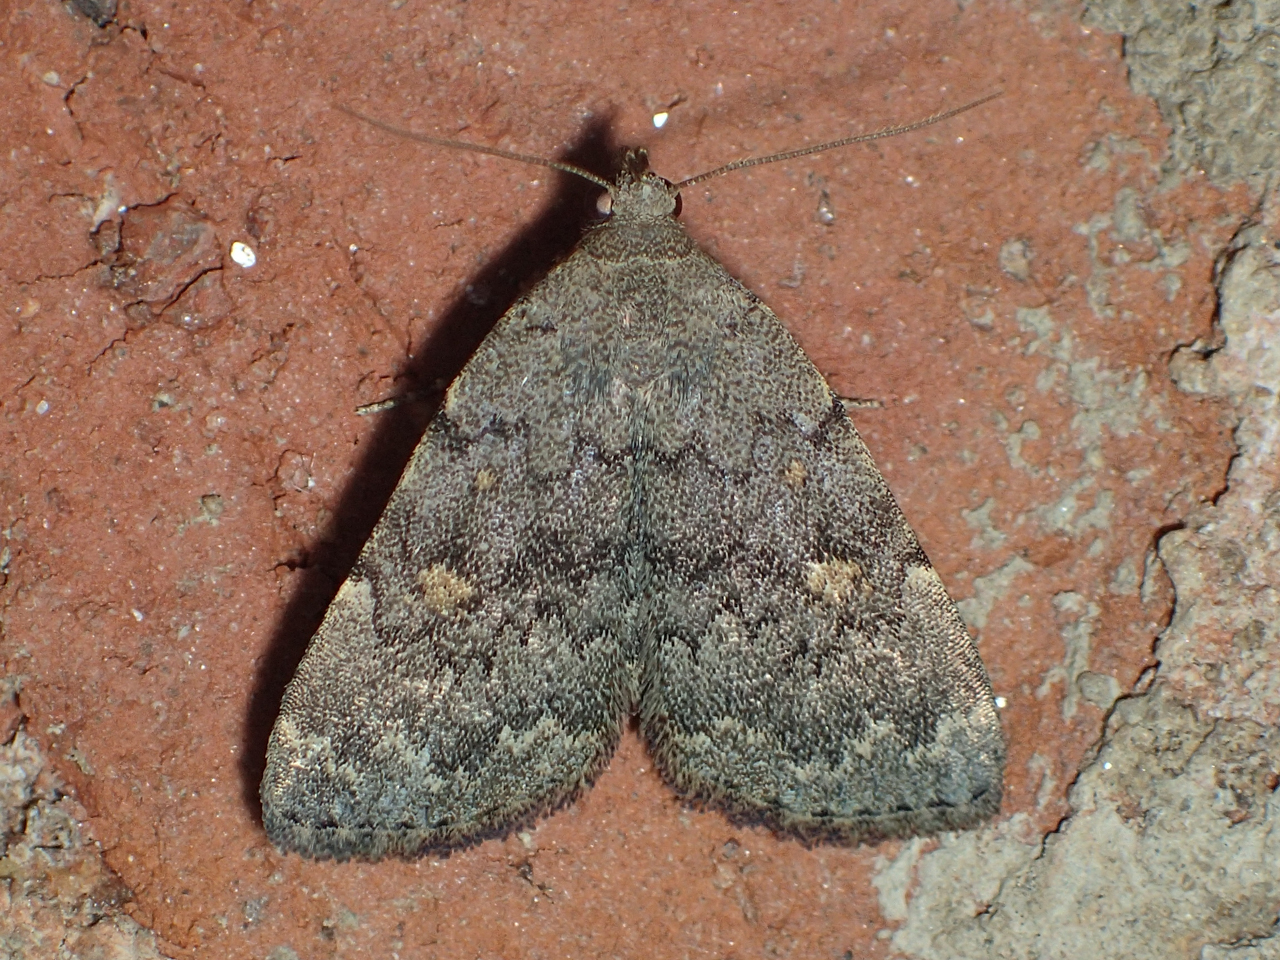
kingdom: Animalia
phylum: Arthropoda
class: Insecta
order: Lepidoptera
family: Erebidae
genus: Idia
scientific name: Idia aemula
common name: Common idia moth
